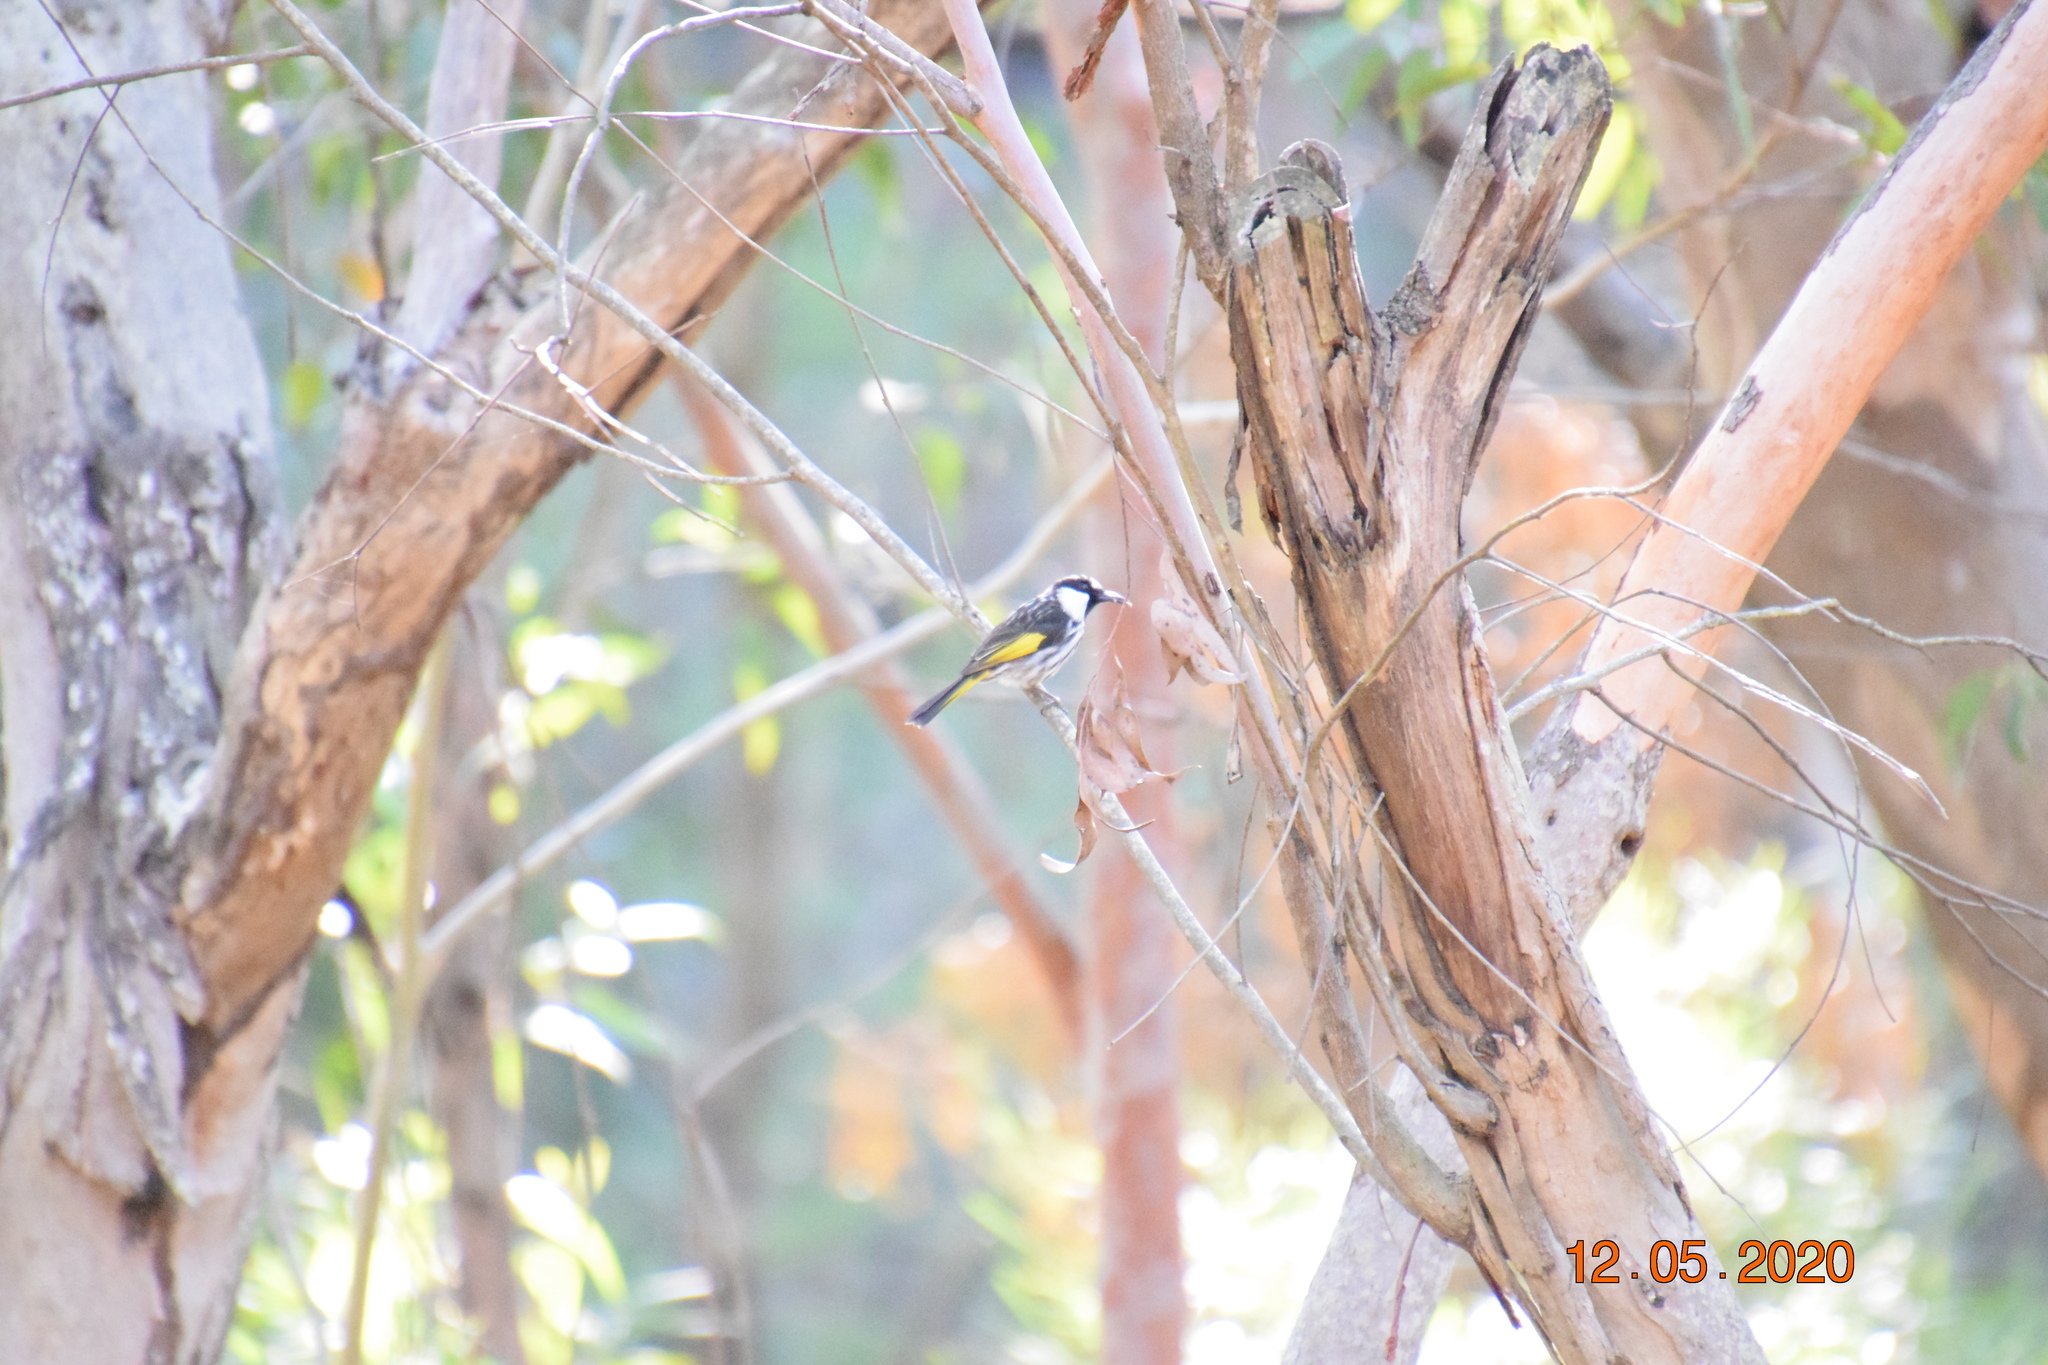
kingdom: Animalia
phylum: Chordata
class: Aves
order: Passeriformes
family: Meliphagidae
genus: Phylidonyris
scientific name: Phylidonyris niger
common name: White-cheeked honeyeater
